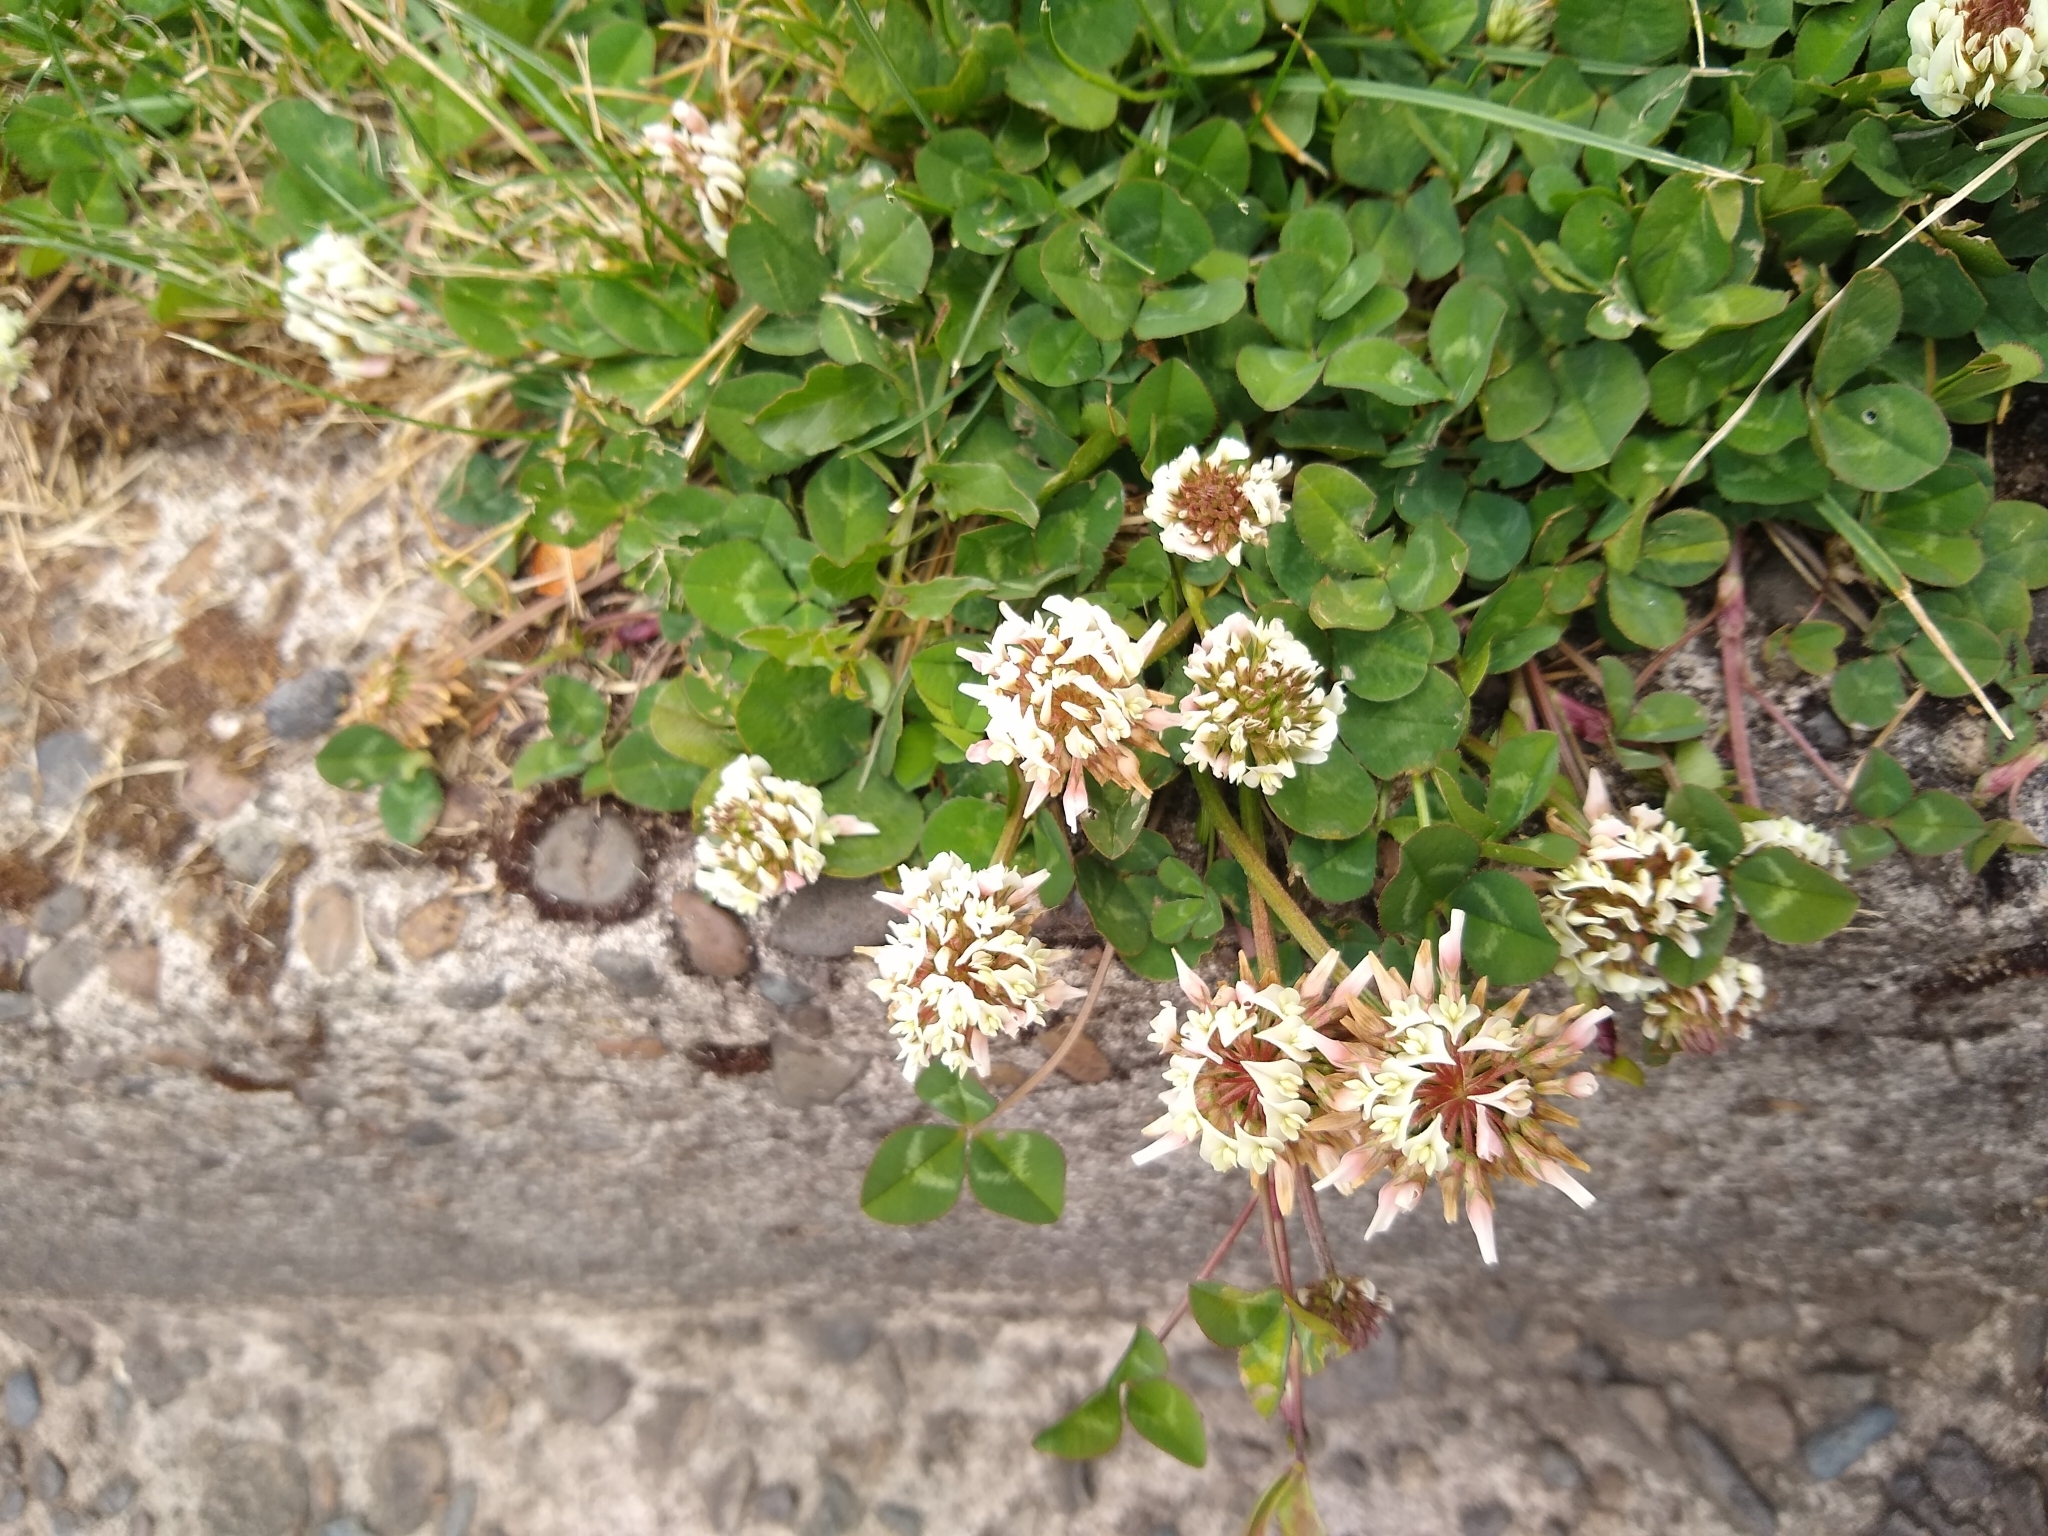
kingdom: Plantae
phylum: Tracheophyta
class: Magnoliopsida
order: Fabales
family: Fabaceae
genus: Trifolium
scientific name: Trifolium repens
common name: White clover
